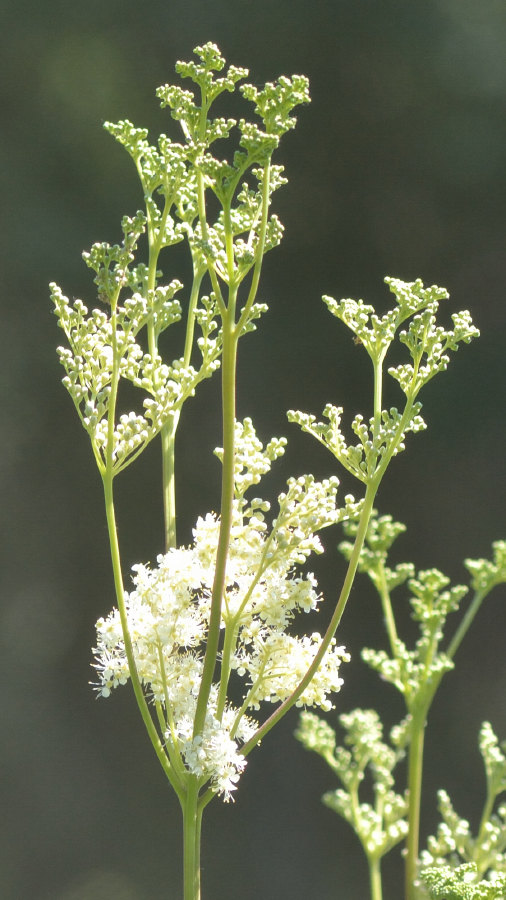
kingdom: Plantae
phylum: Tracheophyta
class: Magnoliopsida
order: Rosales
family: Rosaceae
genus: Filipendula
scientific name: Filipendula ulmaria
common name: Meadowsweet
